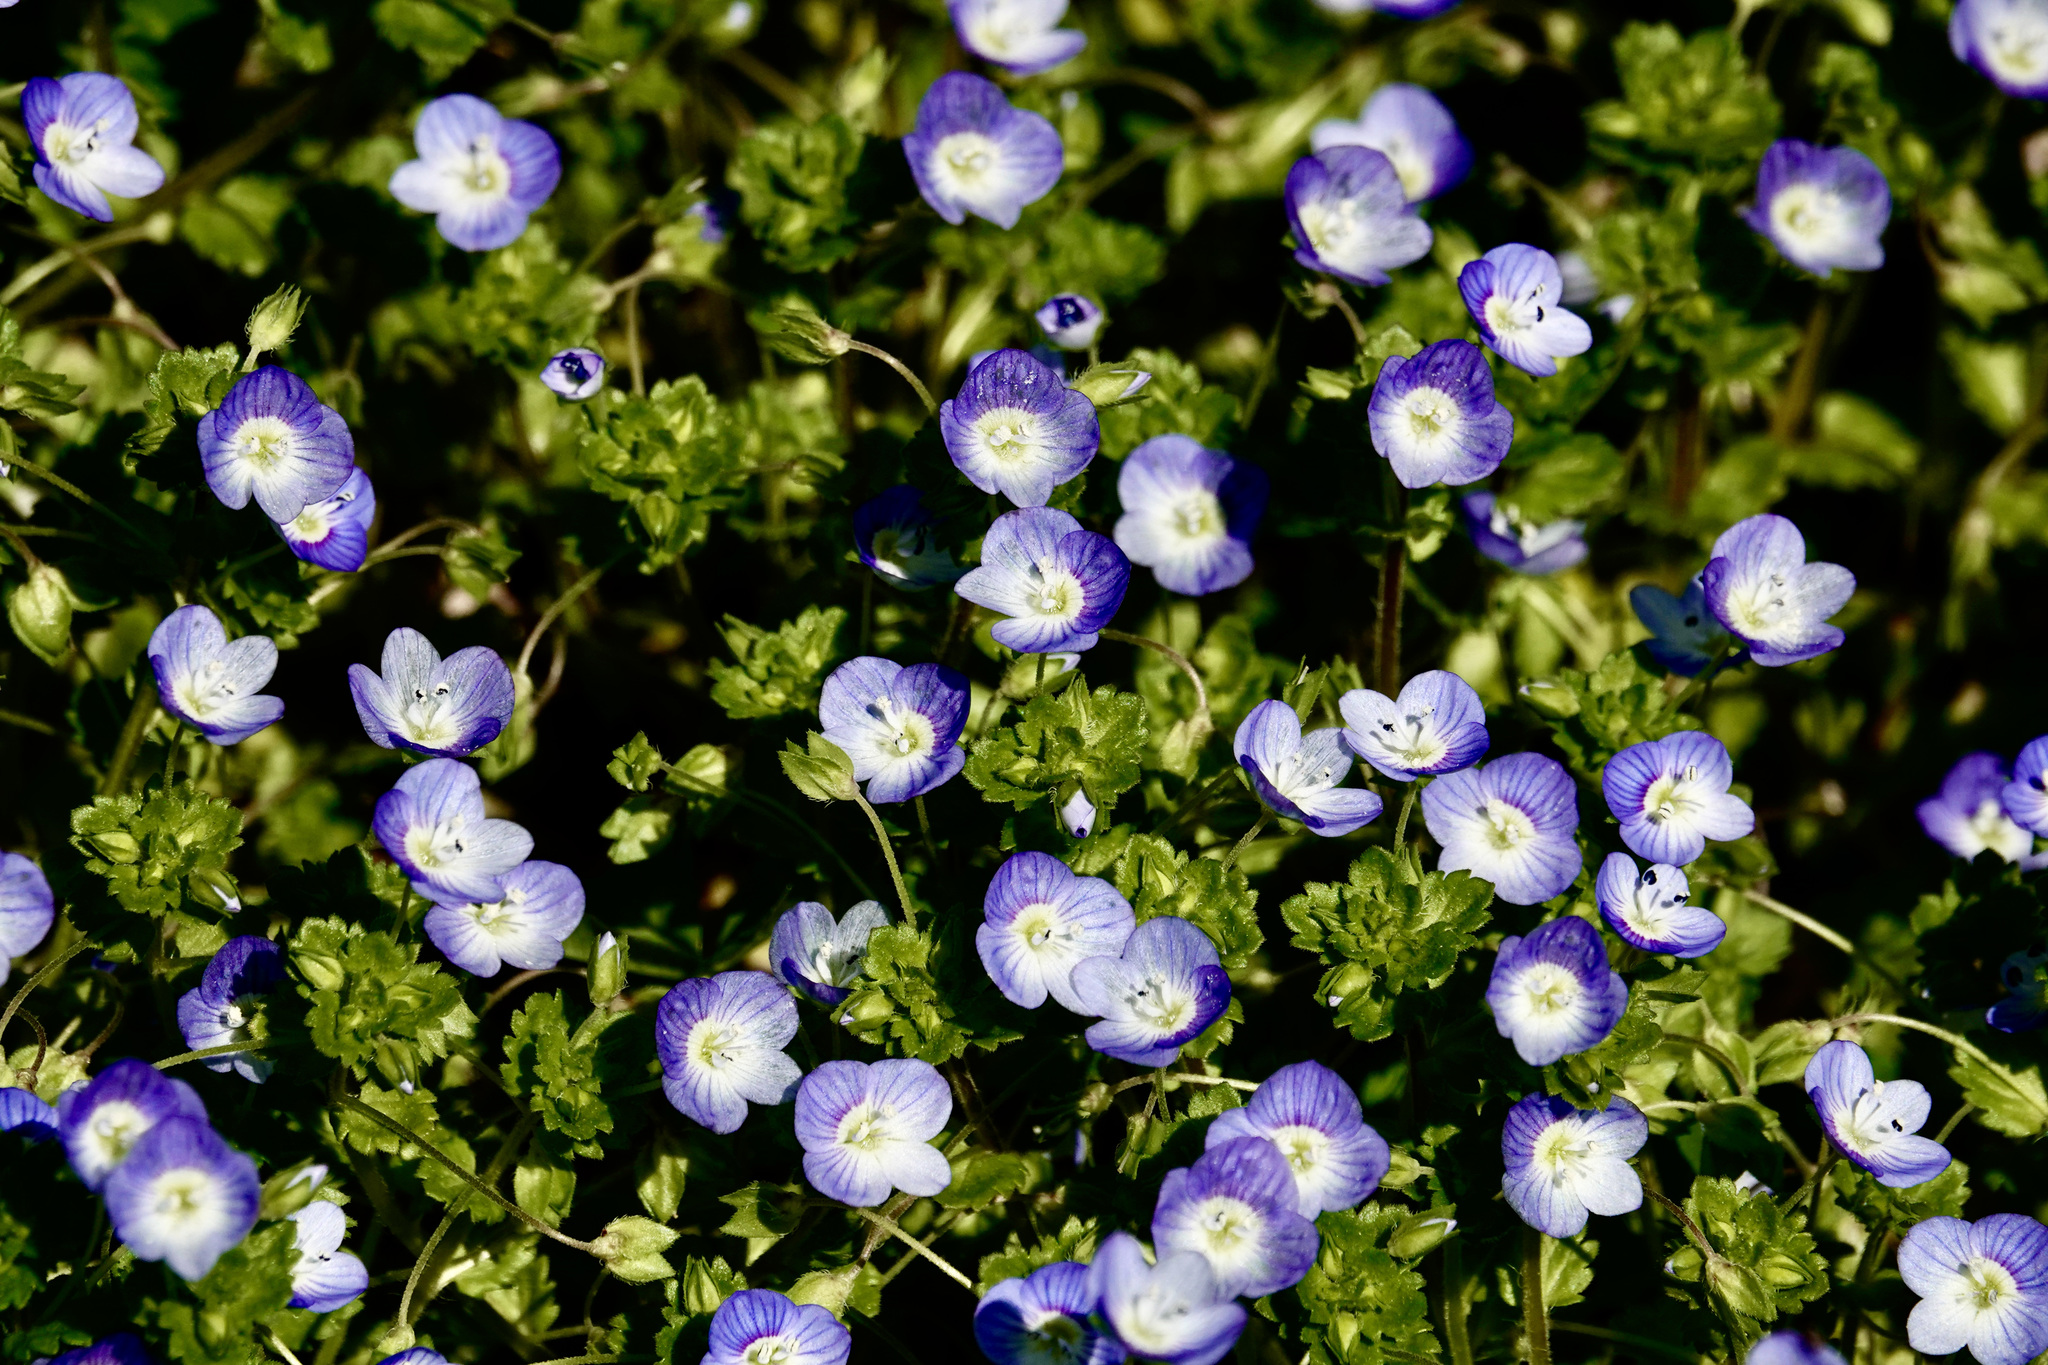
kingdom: Plantae
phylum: Tracheophyta
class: Magnoliopsida
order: Lamiales
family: Plantaginaceae
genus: Veronica
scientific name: Veronica persica
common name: Common field-speedwell
